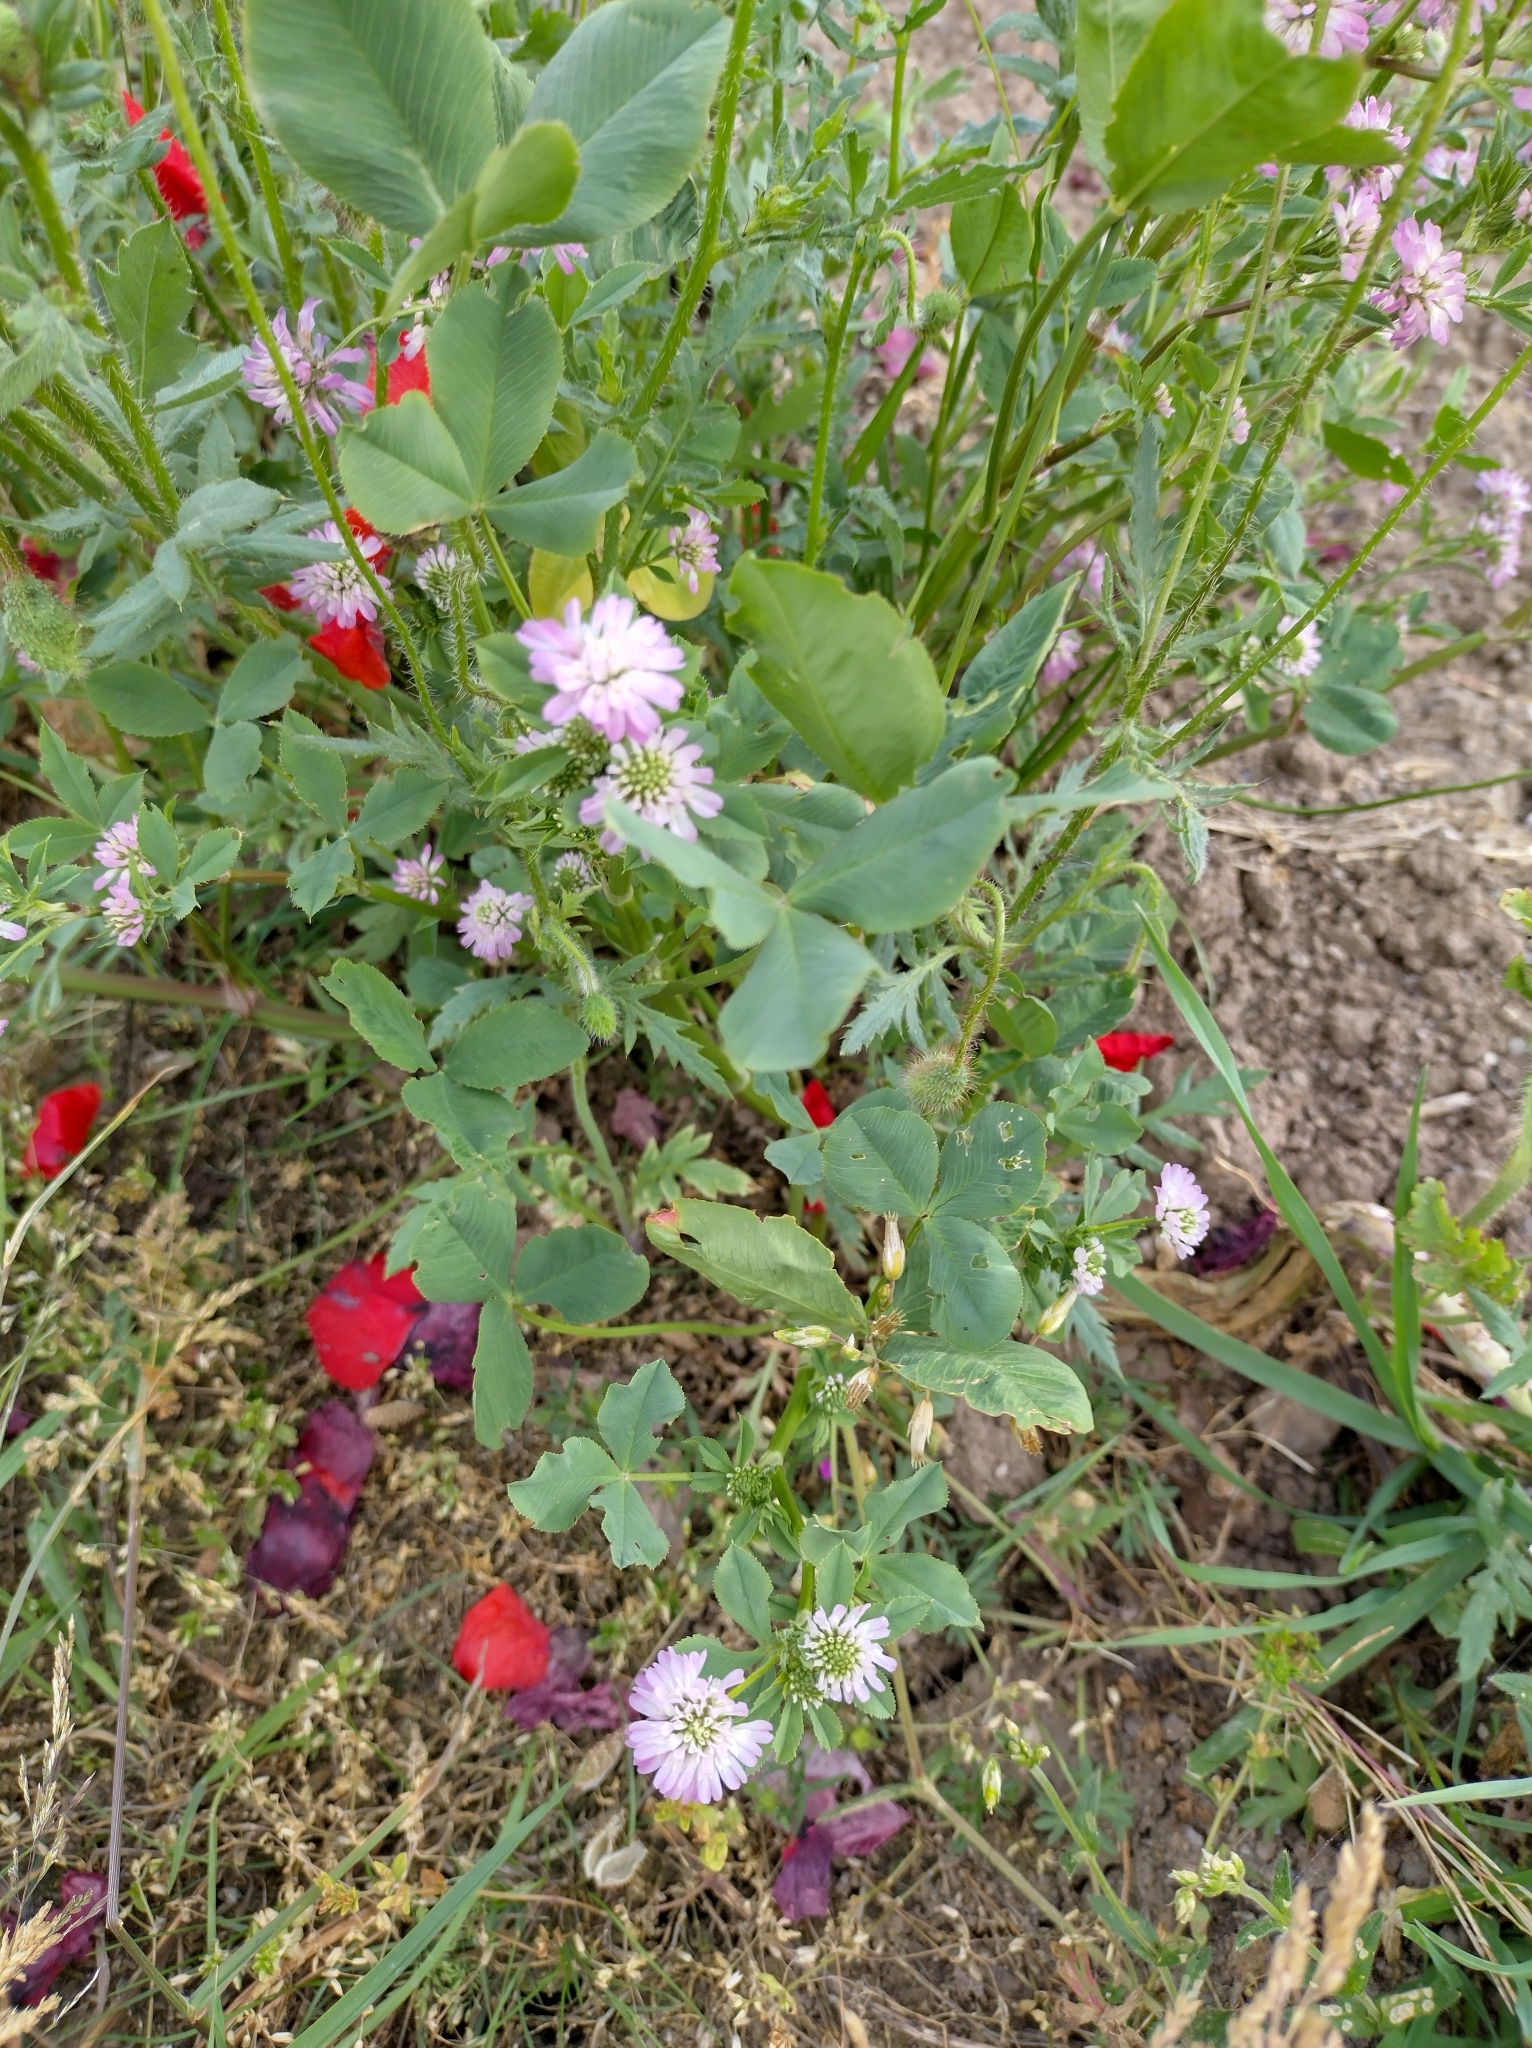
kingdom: Plantae
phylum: Tracheophyta
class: Magnoliopsida
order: Fabales
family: Fabaceae
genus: Trifolium
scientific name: Trifolium resupinatum
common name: Reversed clover
